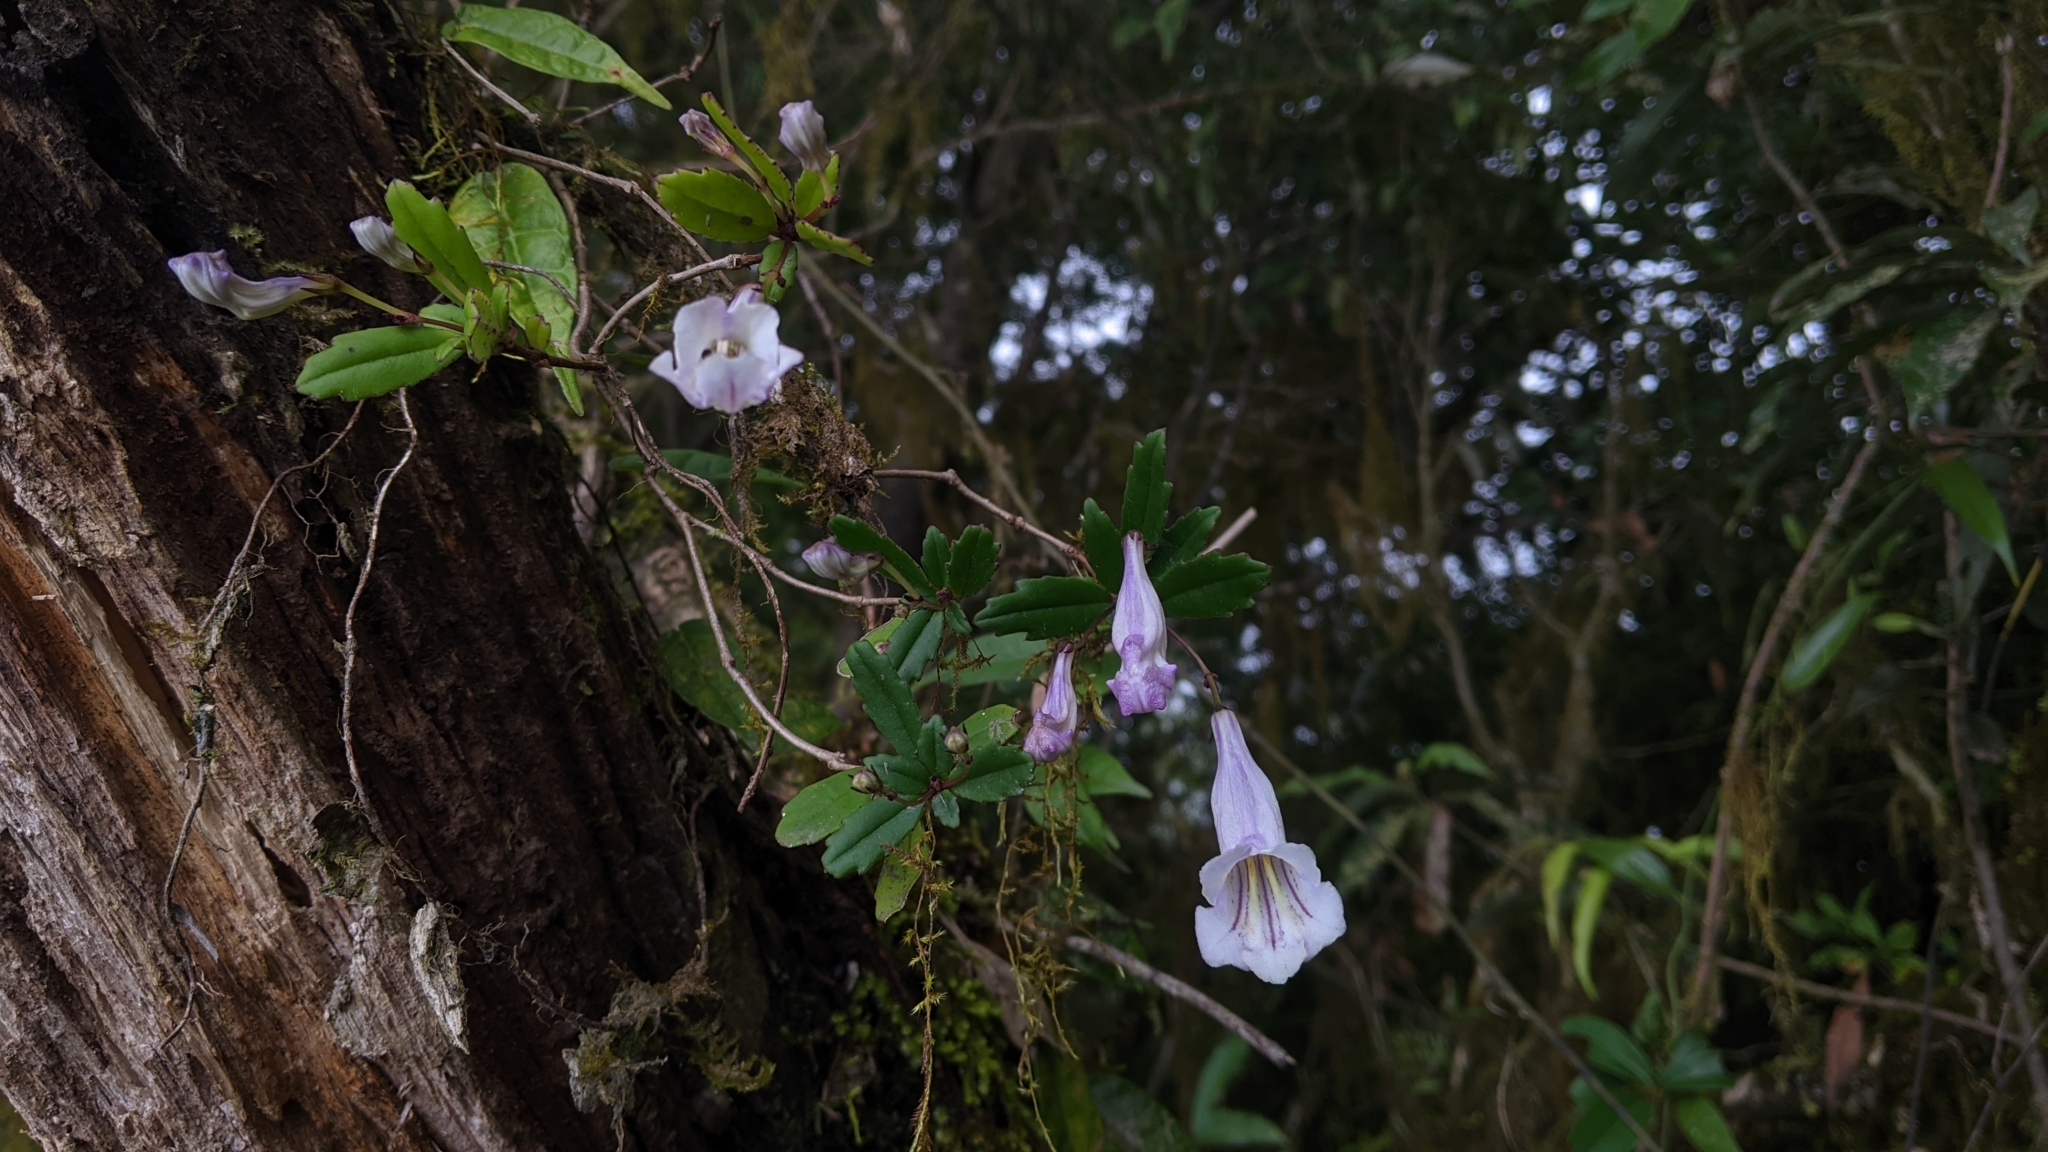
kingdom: Plantae
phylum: Tracheophyta
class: Magnoliopsida
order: Lamiales
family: Gesneriaceae
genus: Lysionotus
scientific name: Lysionotus pauciflorus
